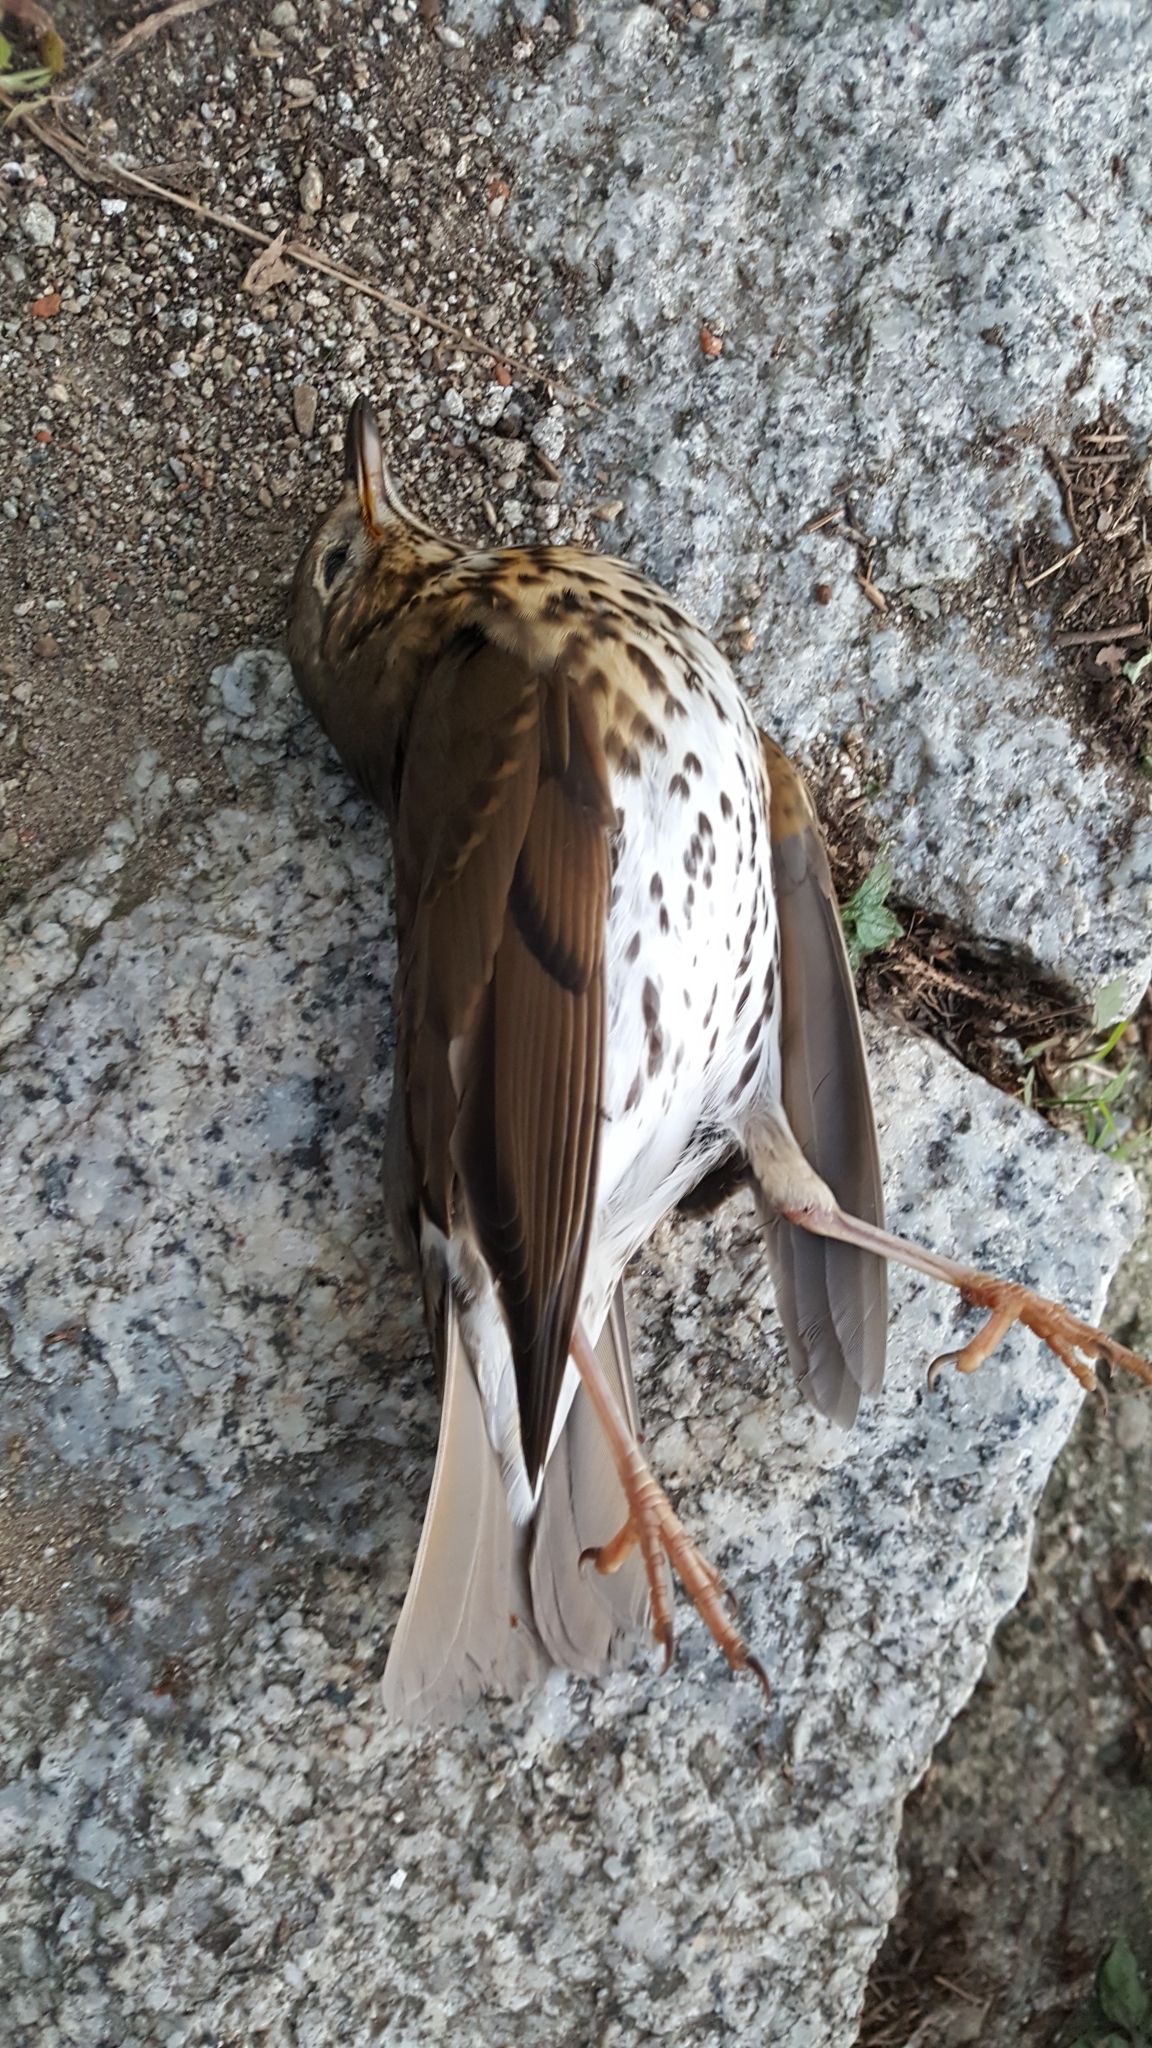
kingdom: Animalia
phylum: Chordata
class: Aves
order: Passeriformes
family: Turdidae
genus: Turdus
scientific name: Turdus philomelos
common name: Song thrush
